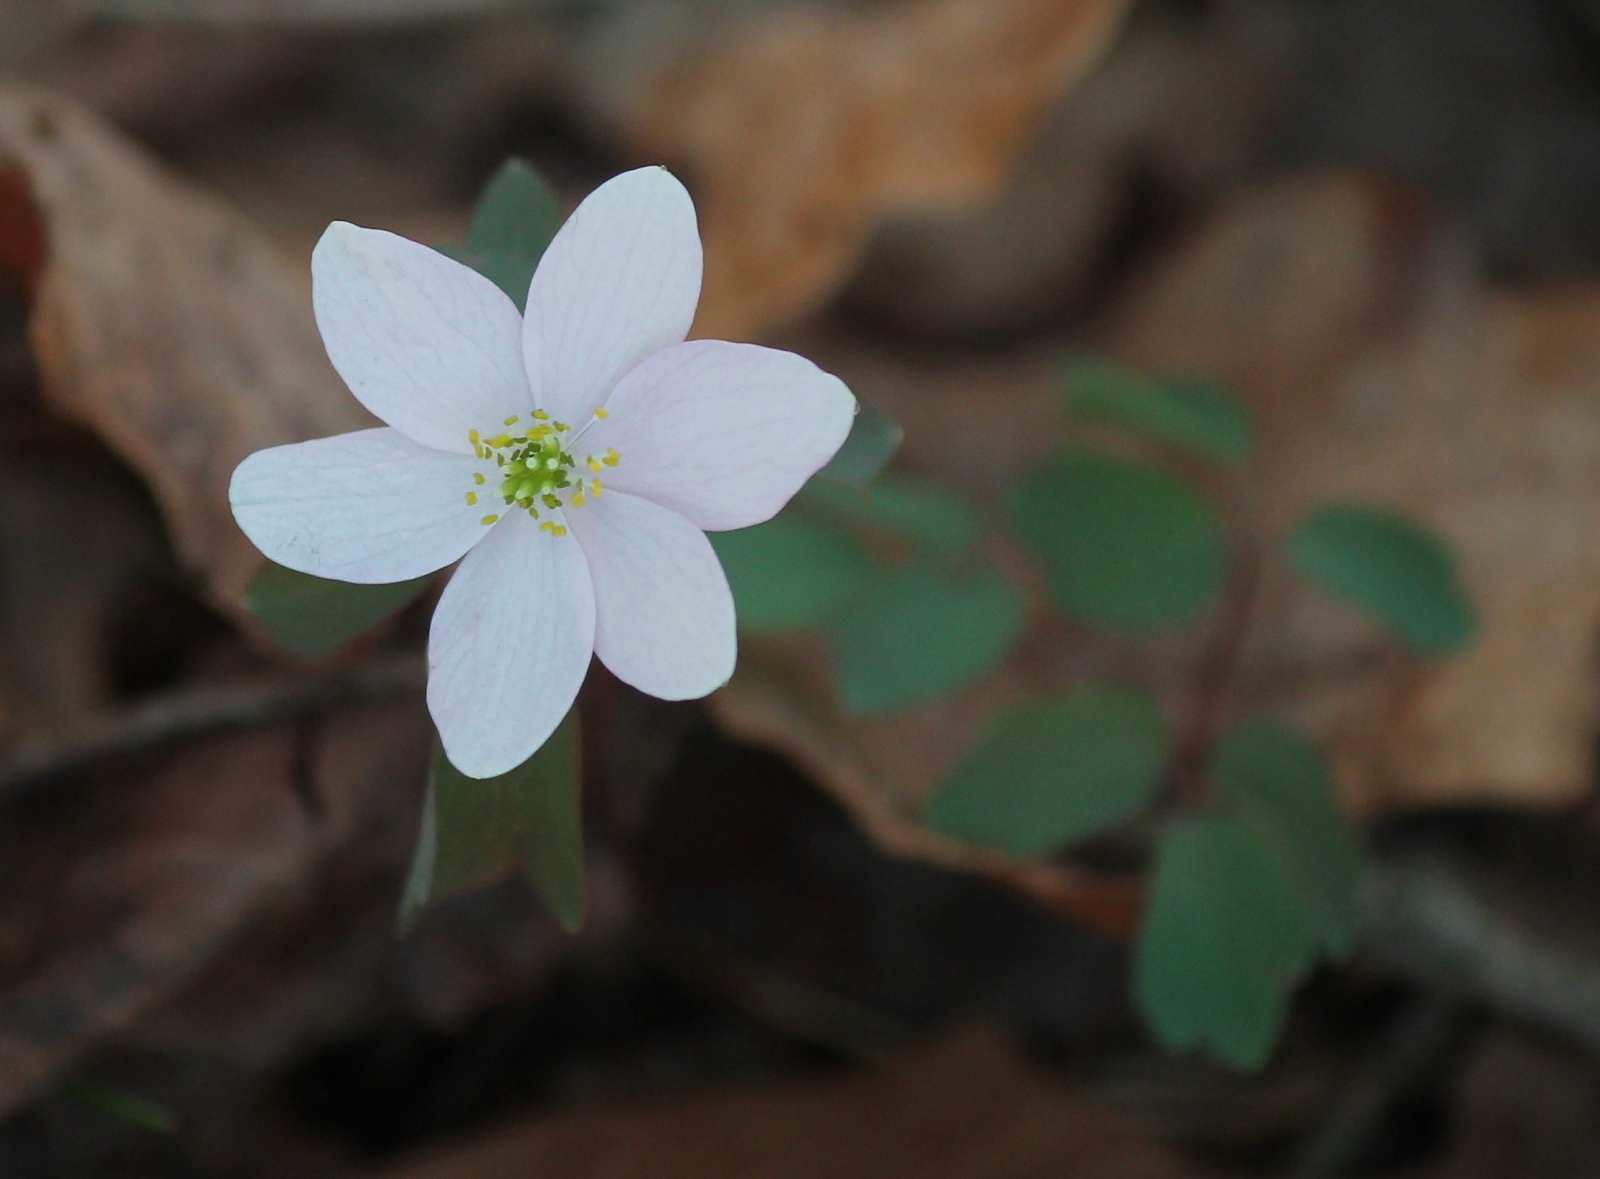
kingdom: Plantae
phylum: Tracheophyta
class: Magnoliopsida
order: Ranunculales
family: Ranunculaceae
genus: Thalictrum
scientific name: Thalictrum thalictroides
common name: Rue-anemone
